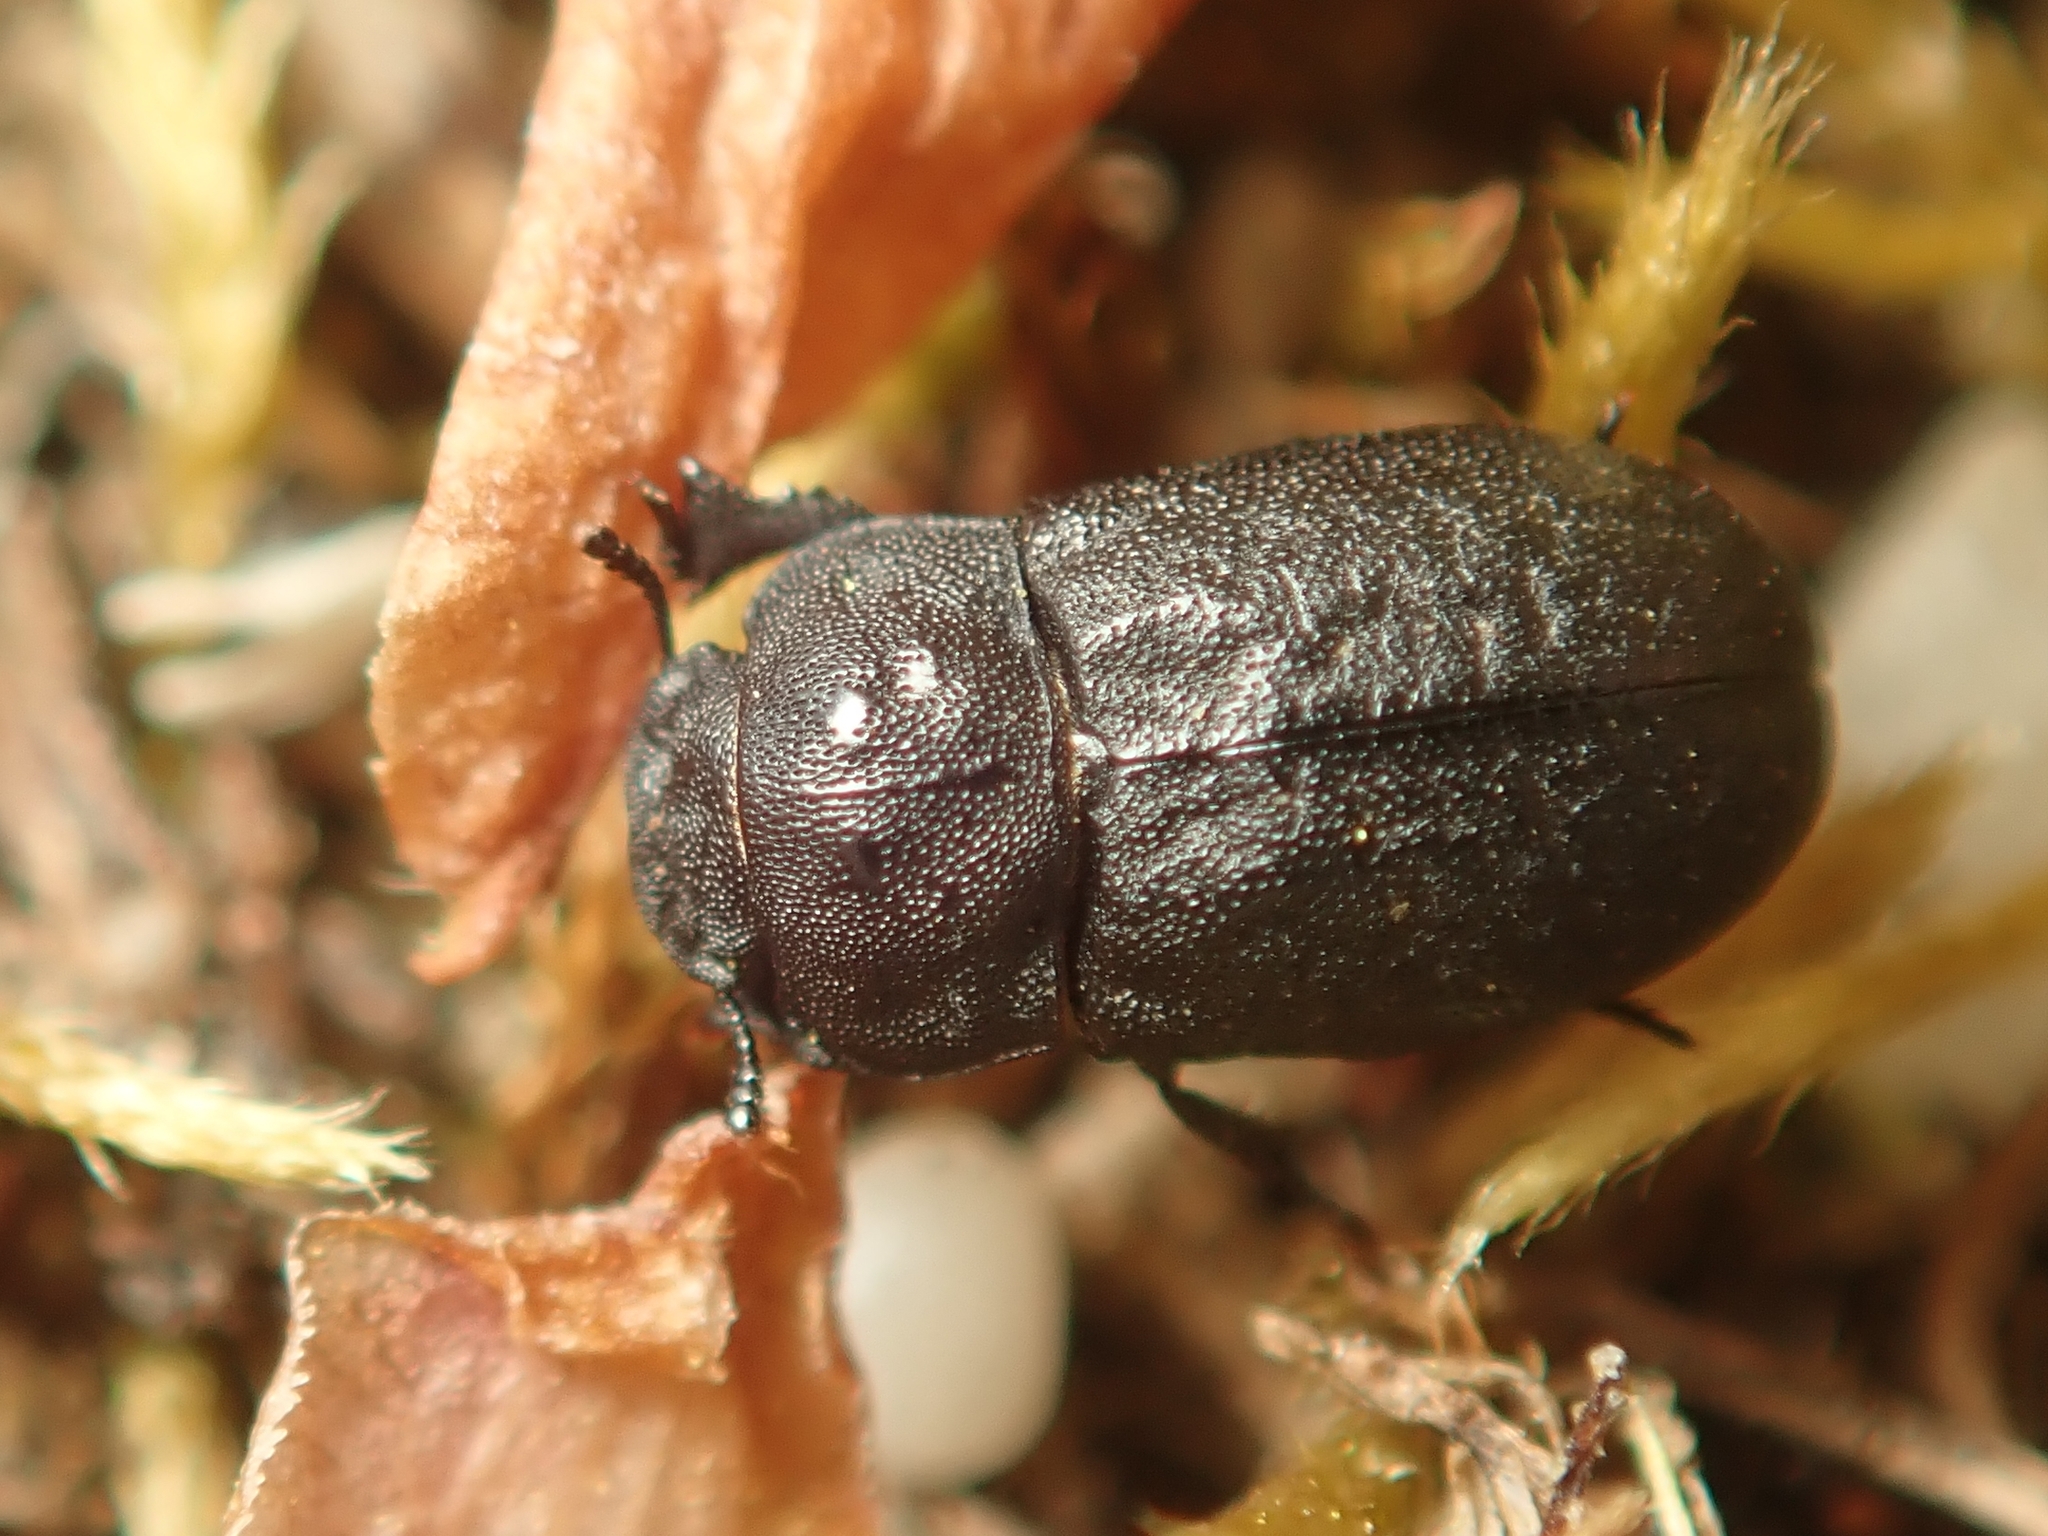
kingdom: Animalia
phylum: Arthropoda
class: Insecta
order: Coleoptera
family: Tenebrionidae
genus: Melanimon
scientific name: Melanimon tibialis
